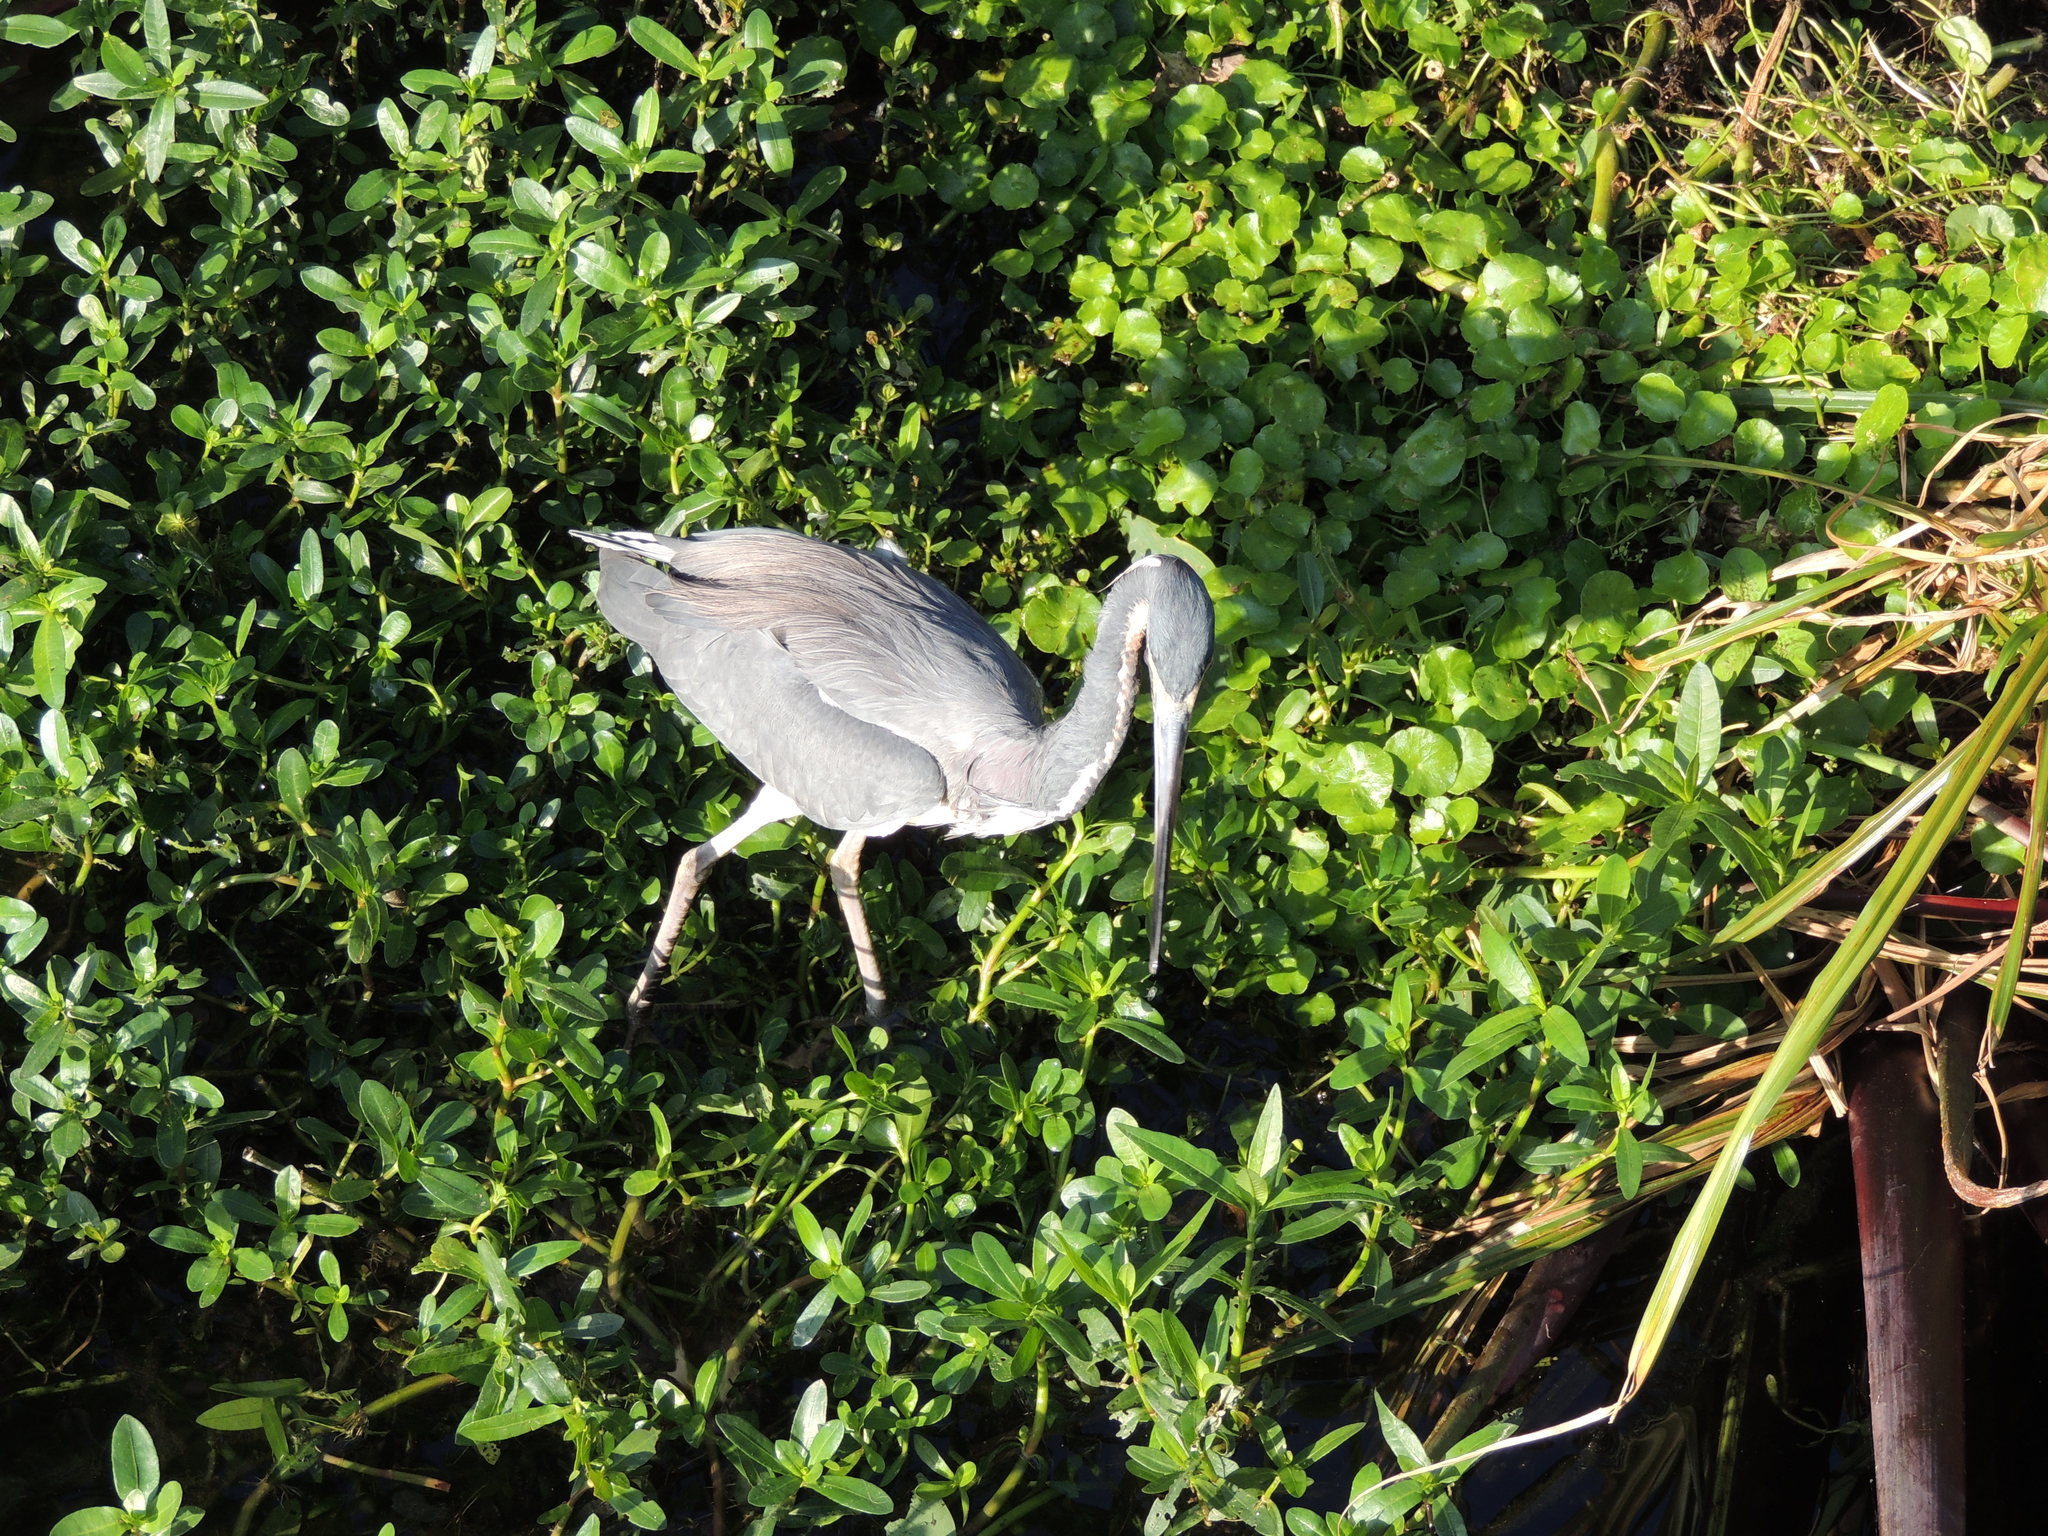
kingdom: Animalia
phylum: Chordata
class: Aves
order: Pelecaniformes
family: Ardeidae
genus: Egretta
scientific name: Egretta tricolor
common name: Tricolored heron
